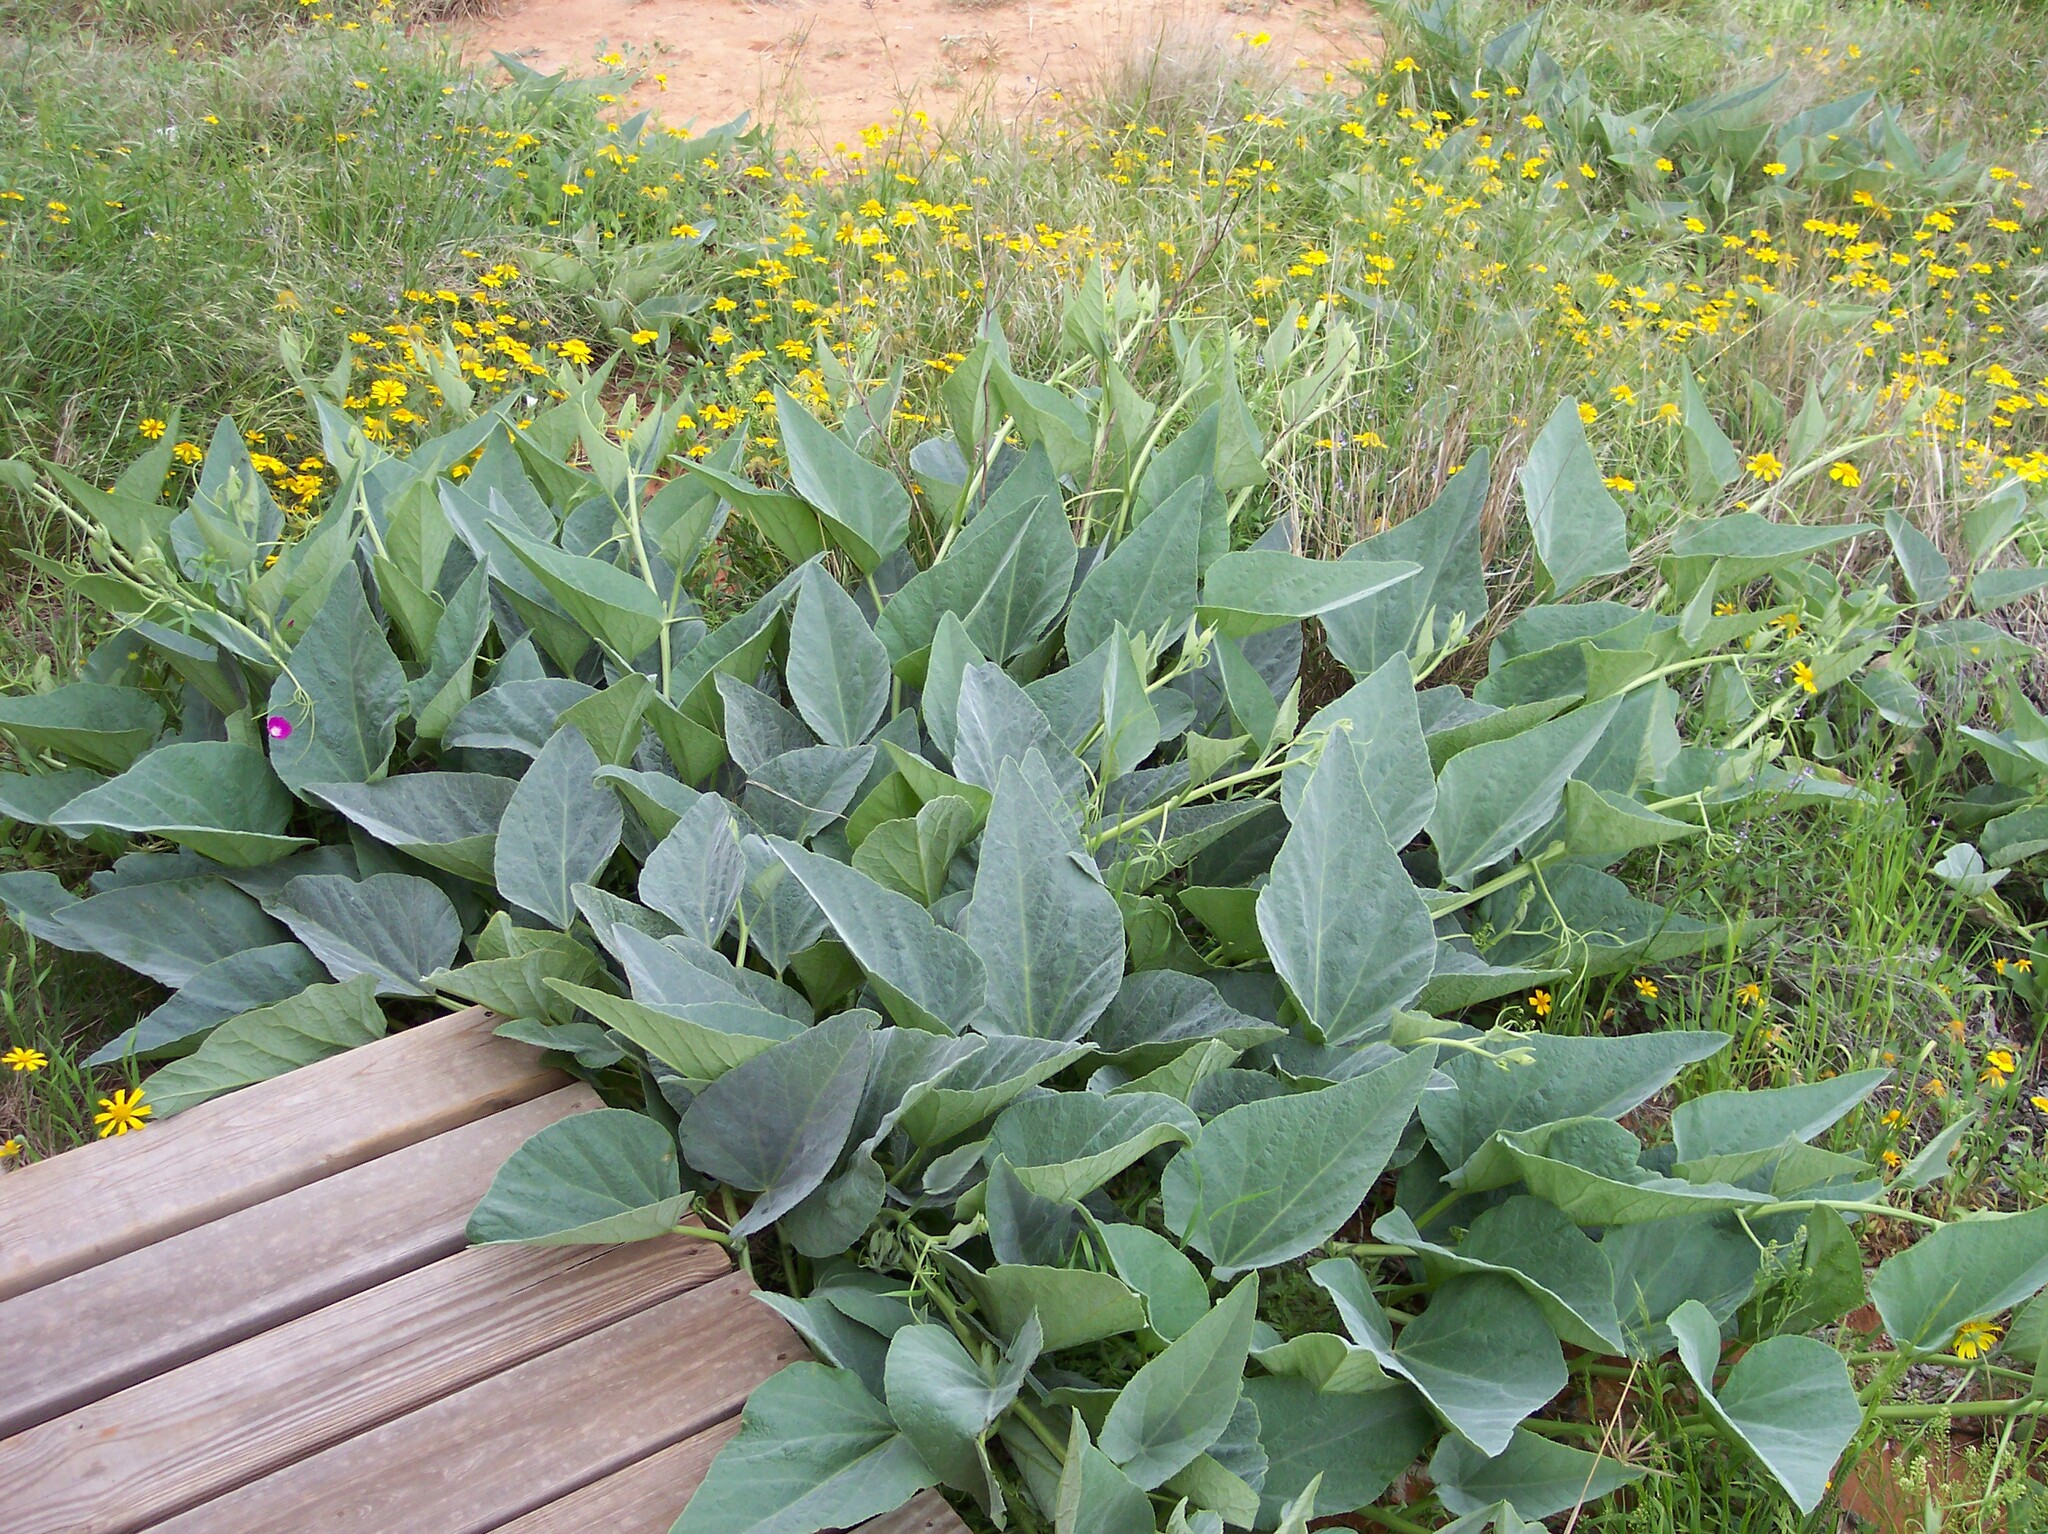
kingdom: Plantae
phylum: Tracheophyta
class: Magnoliopsida
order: Cucurbitales
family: Cucurbitaceae
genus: Cucurbita
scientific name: Cucurbita foetidissima
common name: Buffalo gourd
